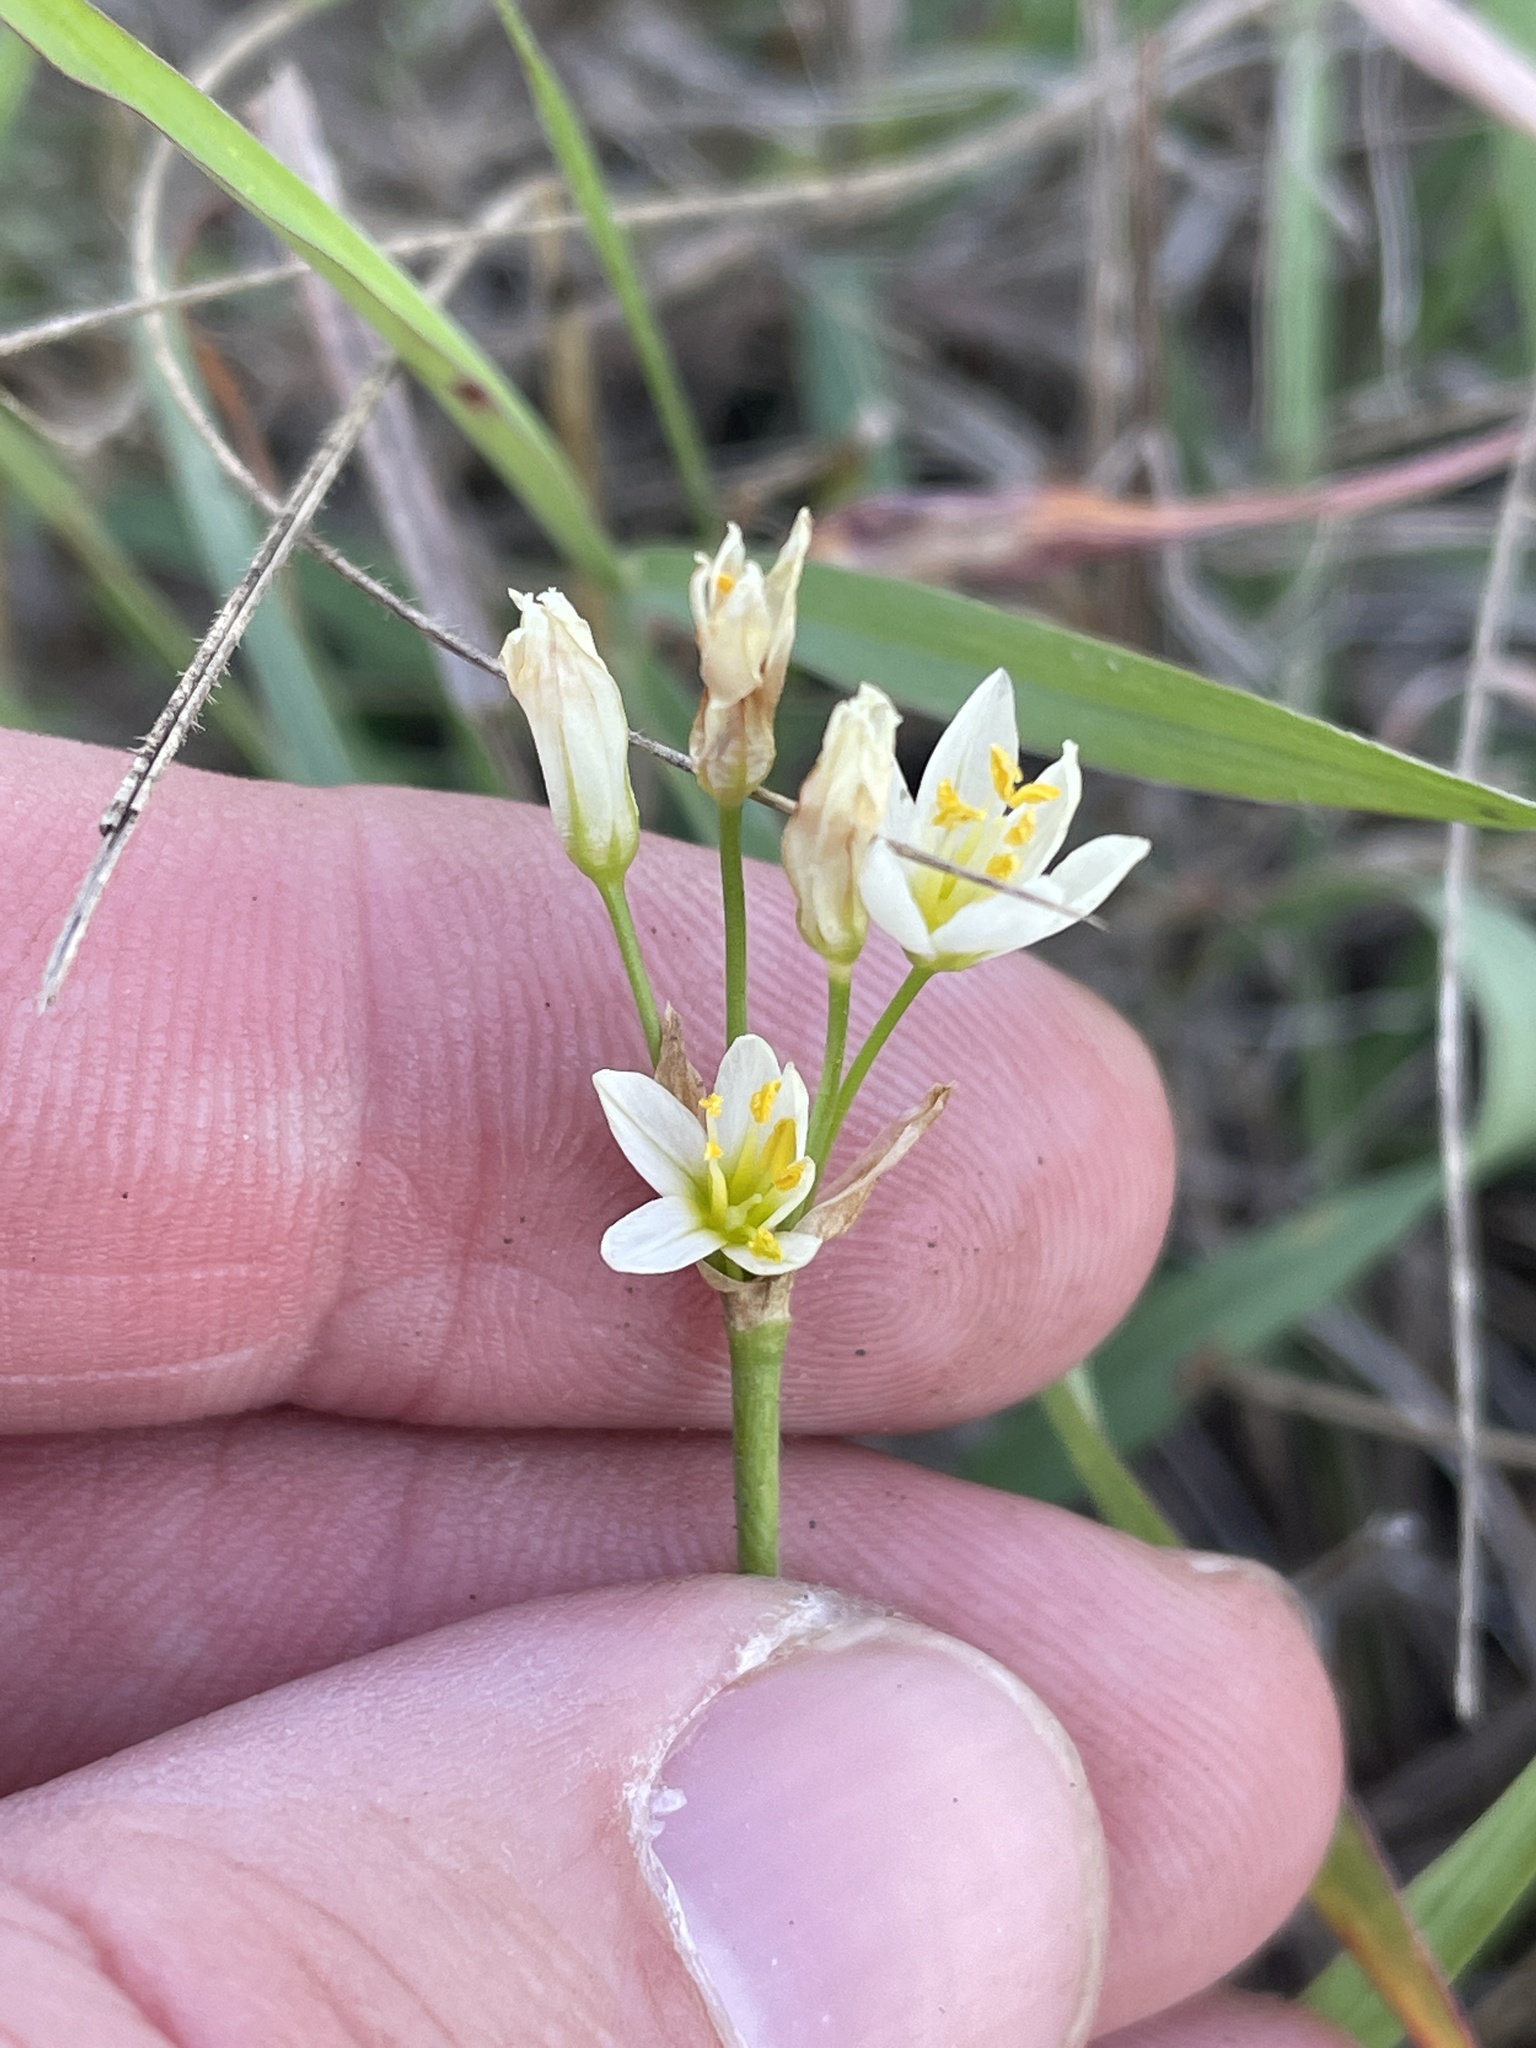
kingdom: Plantae
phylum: Tracheophyta
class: Liliopsida
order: Asparagales
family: Amaryllidaceae
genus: Nothoscordum
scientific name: Nothoscordum bivalve
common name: Crow-poison
